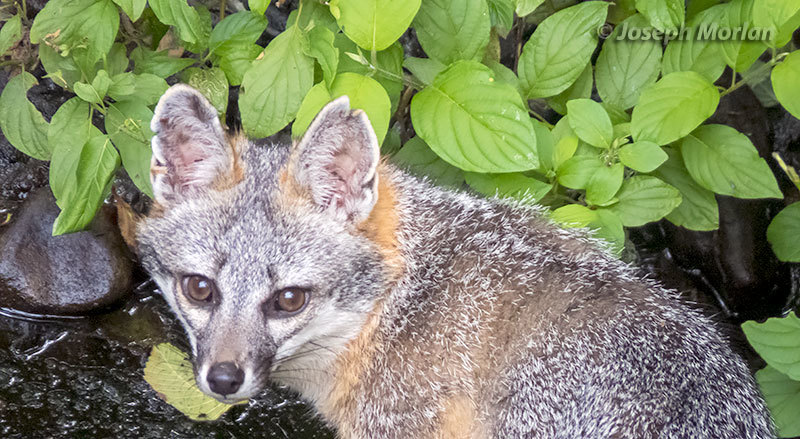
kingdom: Animalia
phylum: Chordata
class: Mammalia
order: Carnivora
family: Canidae
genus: Urocyon
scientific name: Urocyon cinereoargenteus
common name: Gray fox
